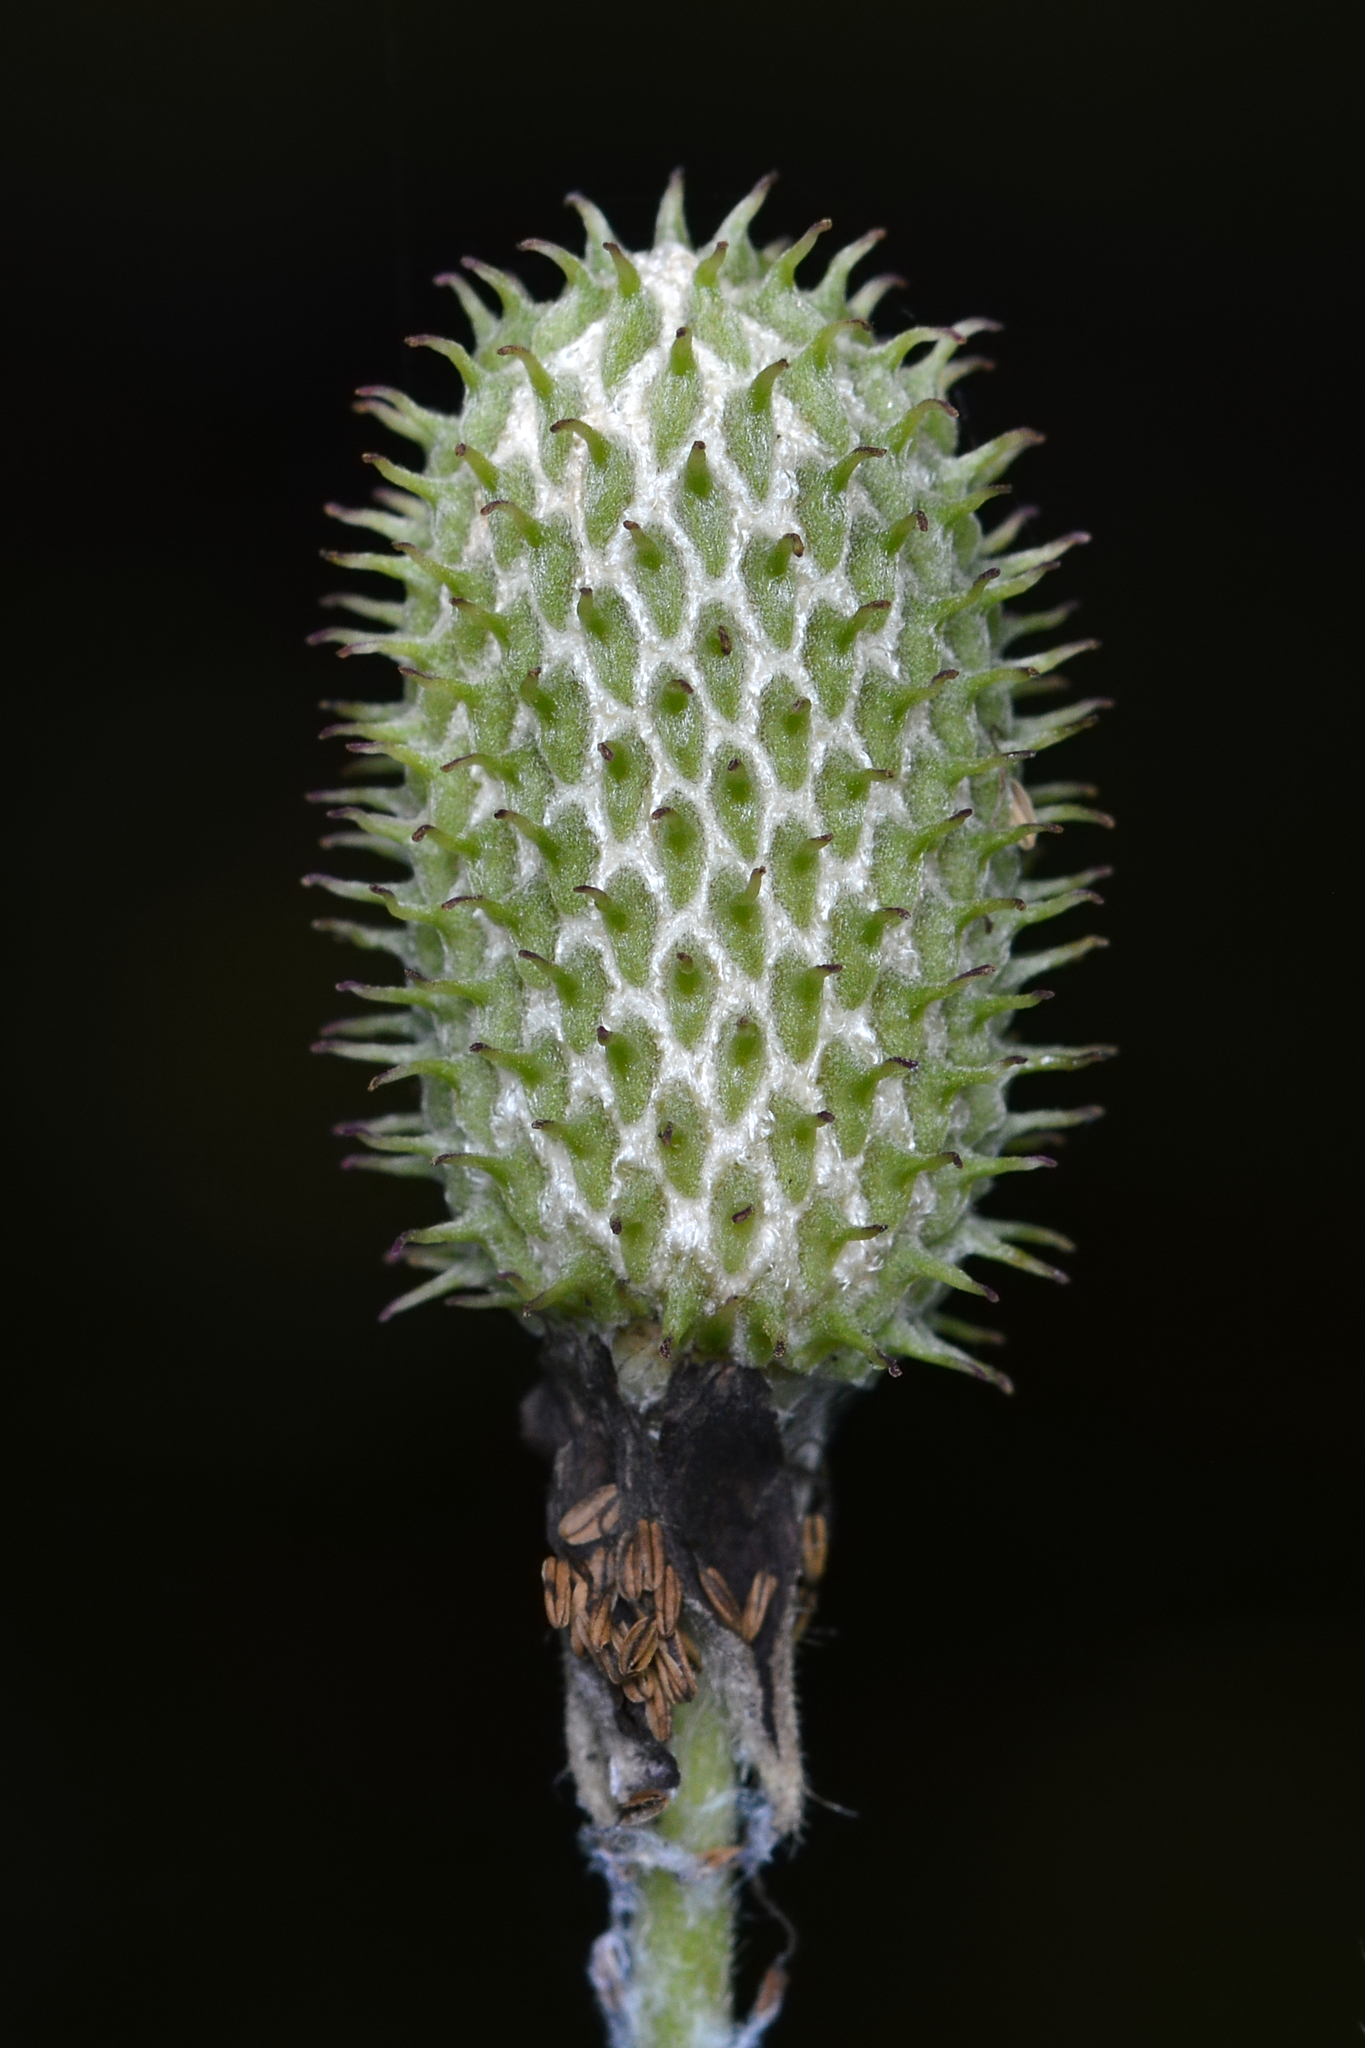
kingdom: Plantae
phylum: Tracheophyta
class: Magnoliopsida
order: Ranunculales
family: Ranunculaceae
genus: Anemone
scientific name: Anemone virginiana
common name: Tall anemone
